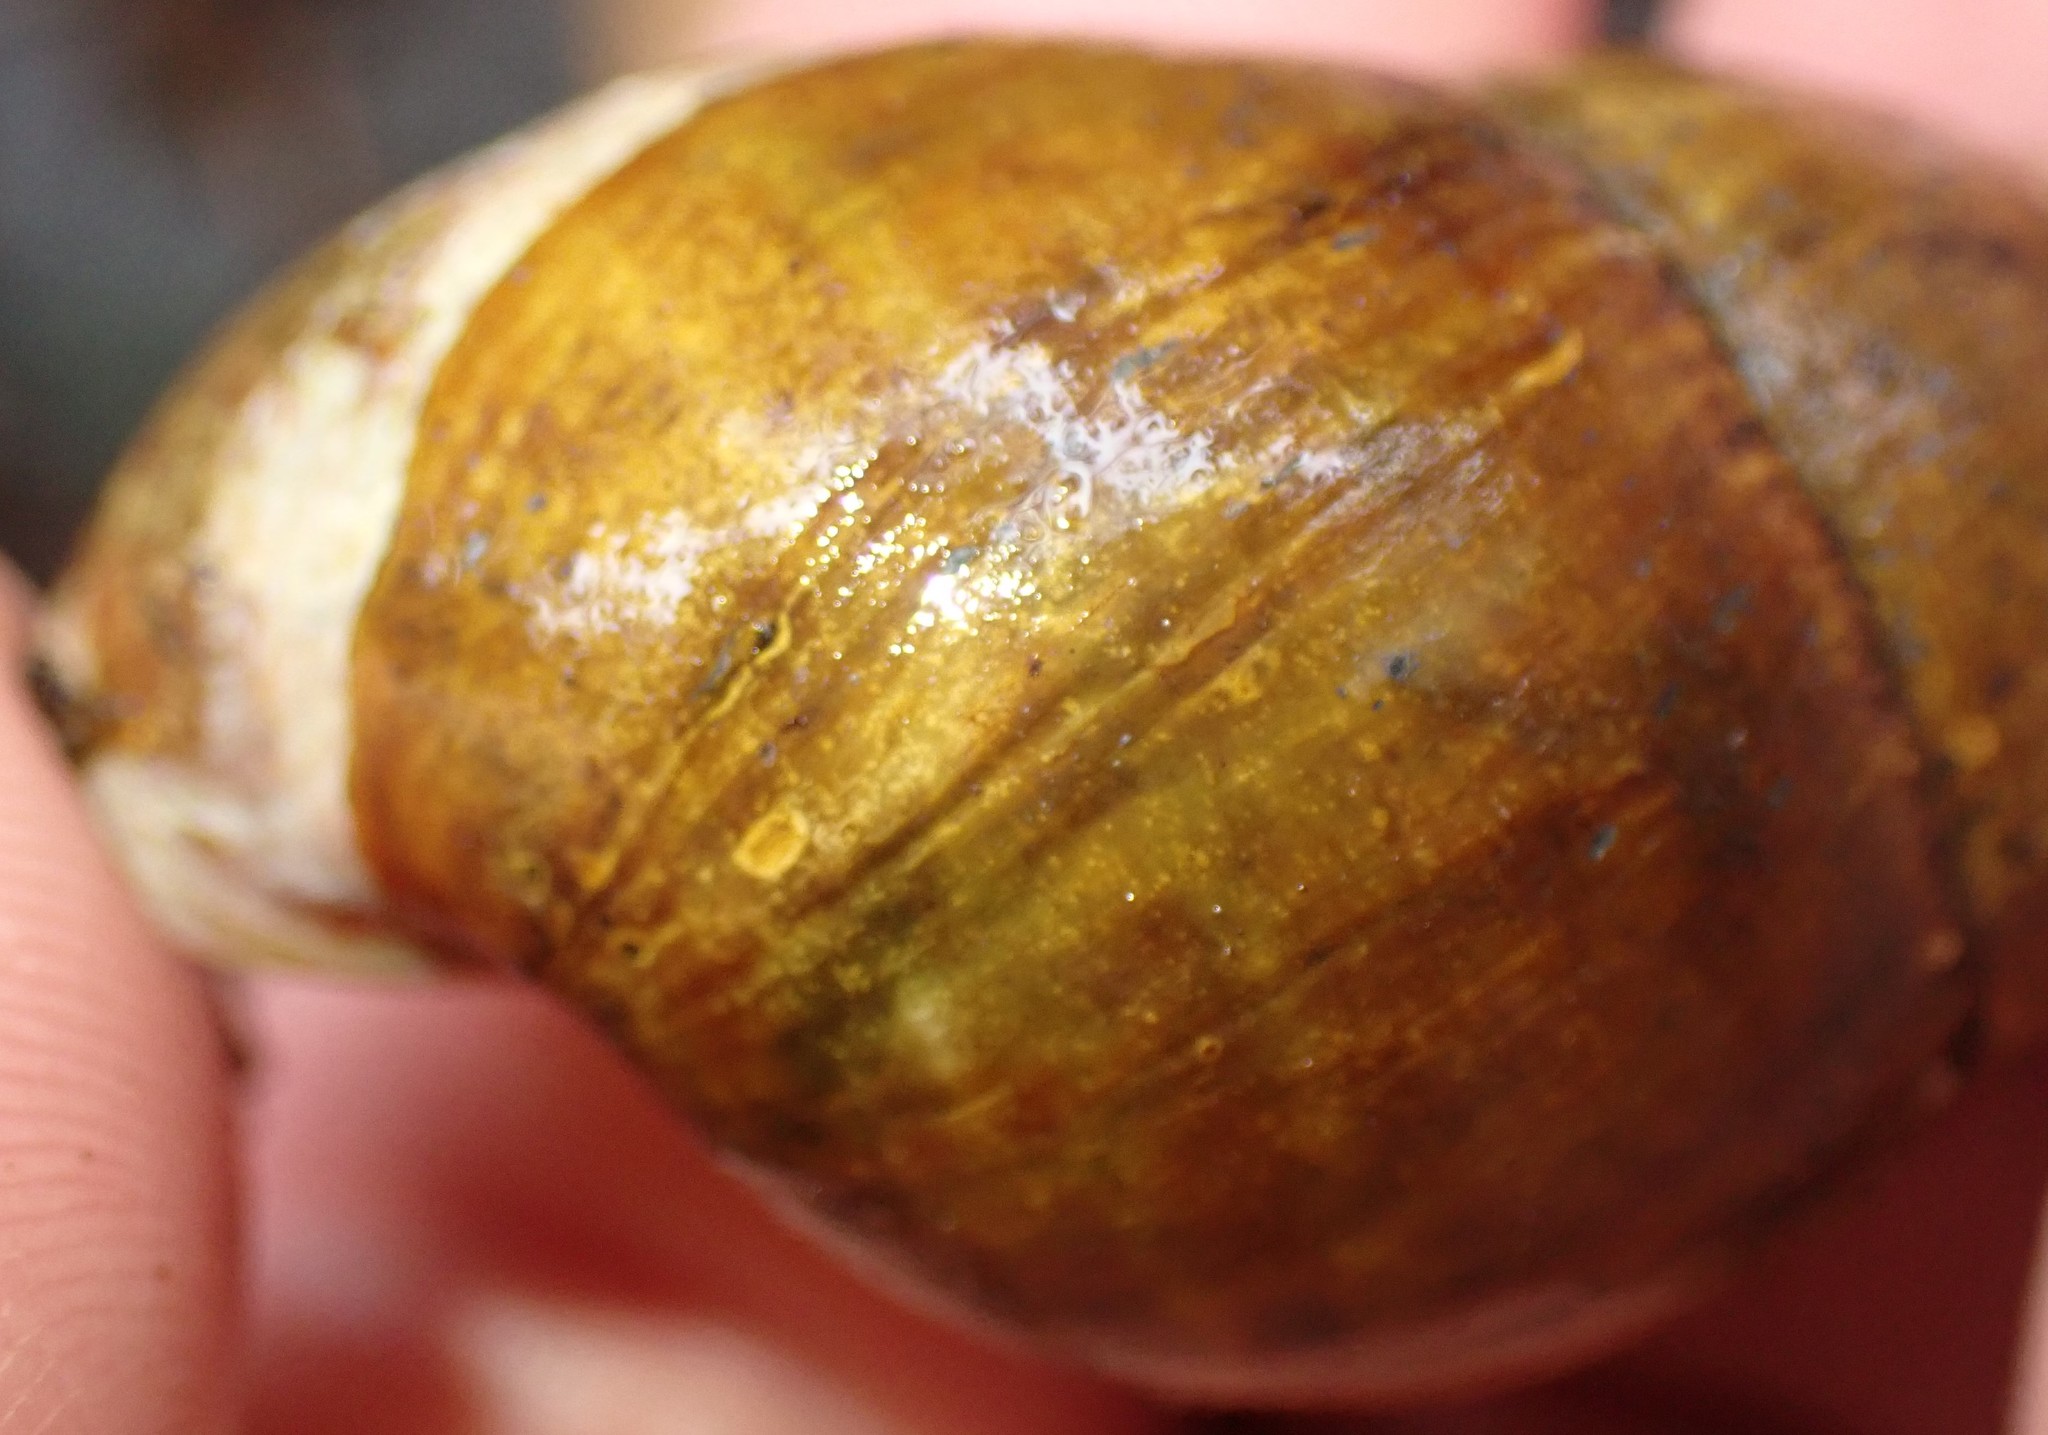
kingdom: Animalia
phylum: Mollusca
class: Gastropoda
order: Stylommatophora
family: Caryodidae
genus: Caryodes
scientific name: Caryodes dufresnii
